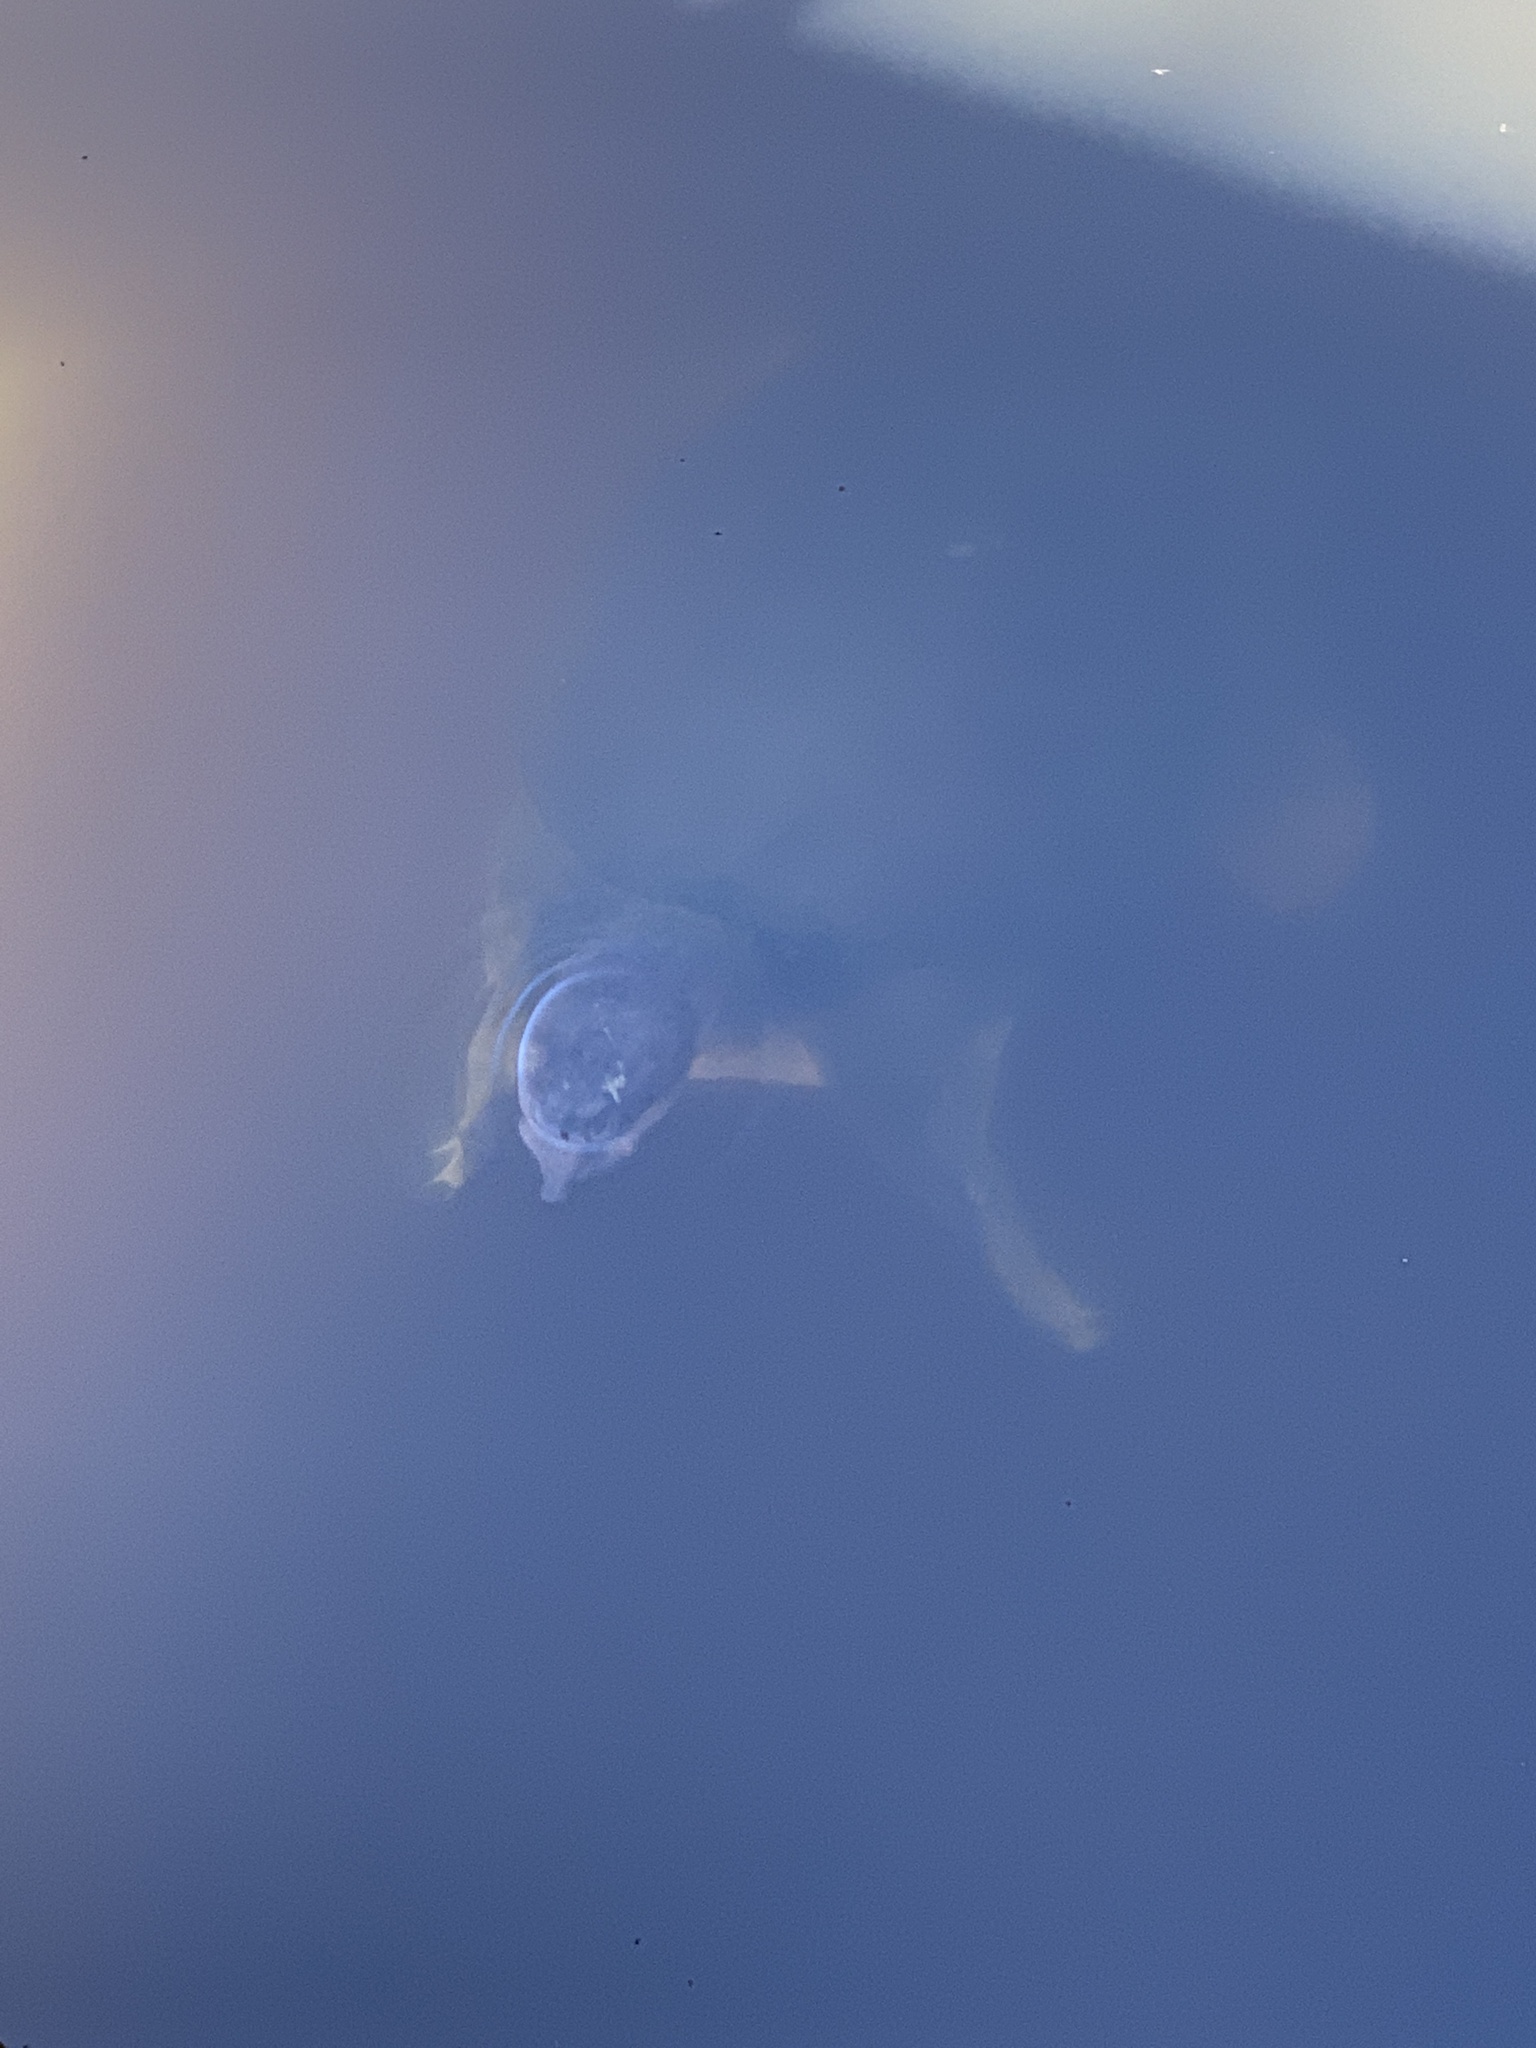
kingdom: Animalia
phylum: Chordata
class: Testudines
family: Trionychidae
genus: Apalone
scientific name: Apalone ferox
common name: Florida softshell turtle
